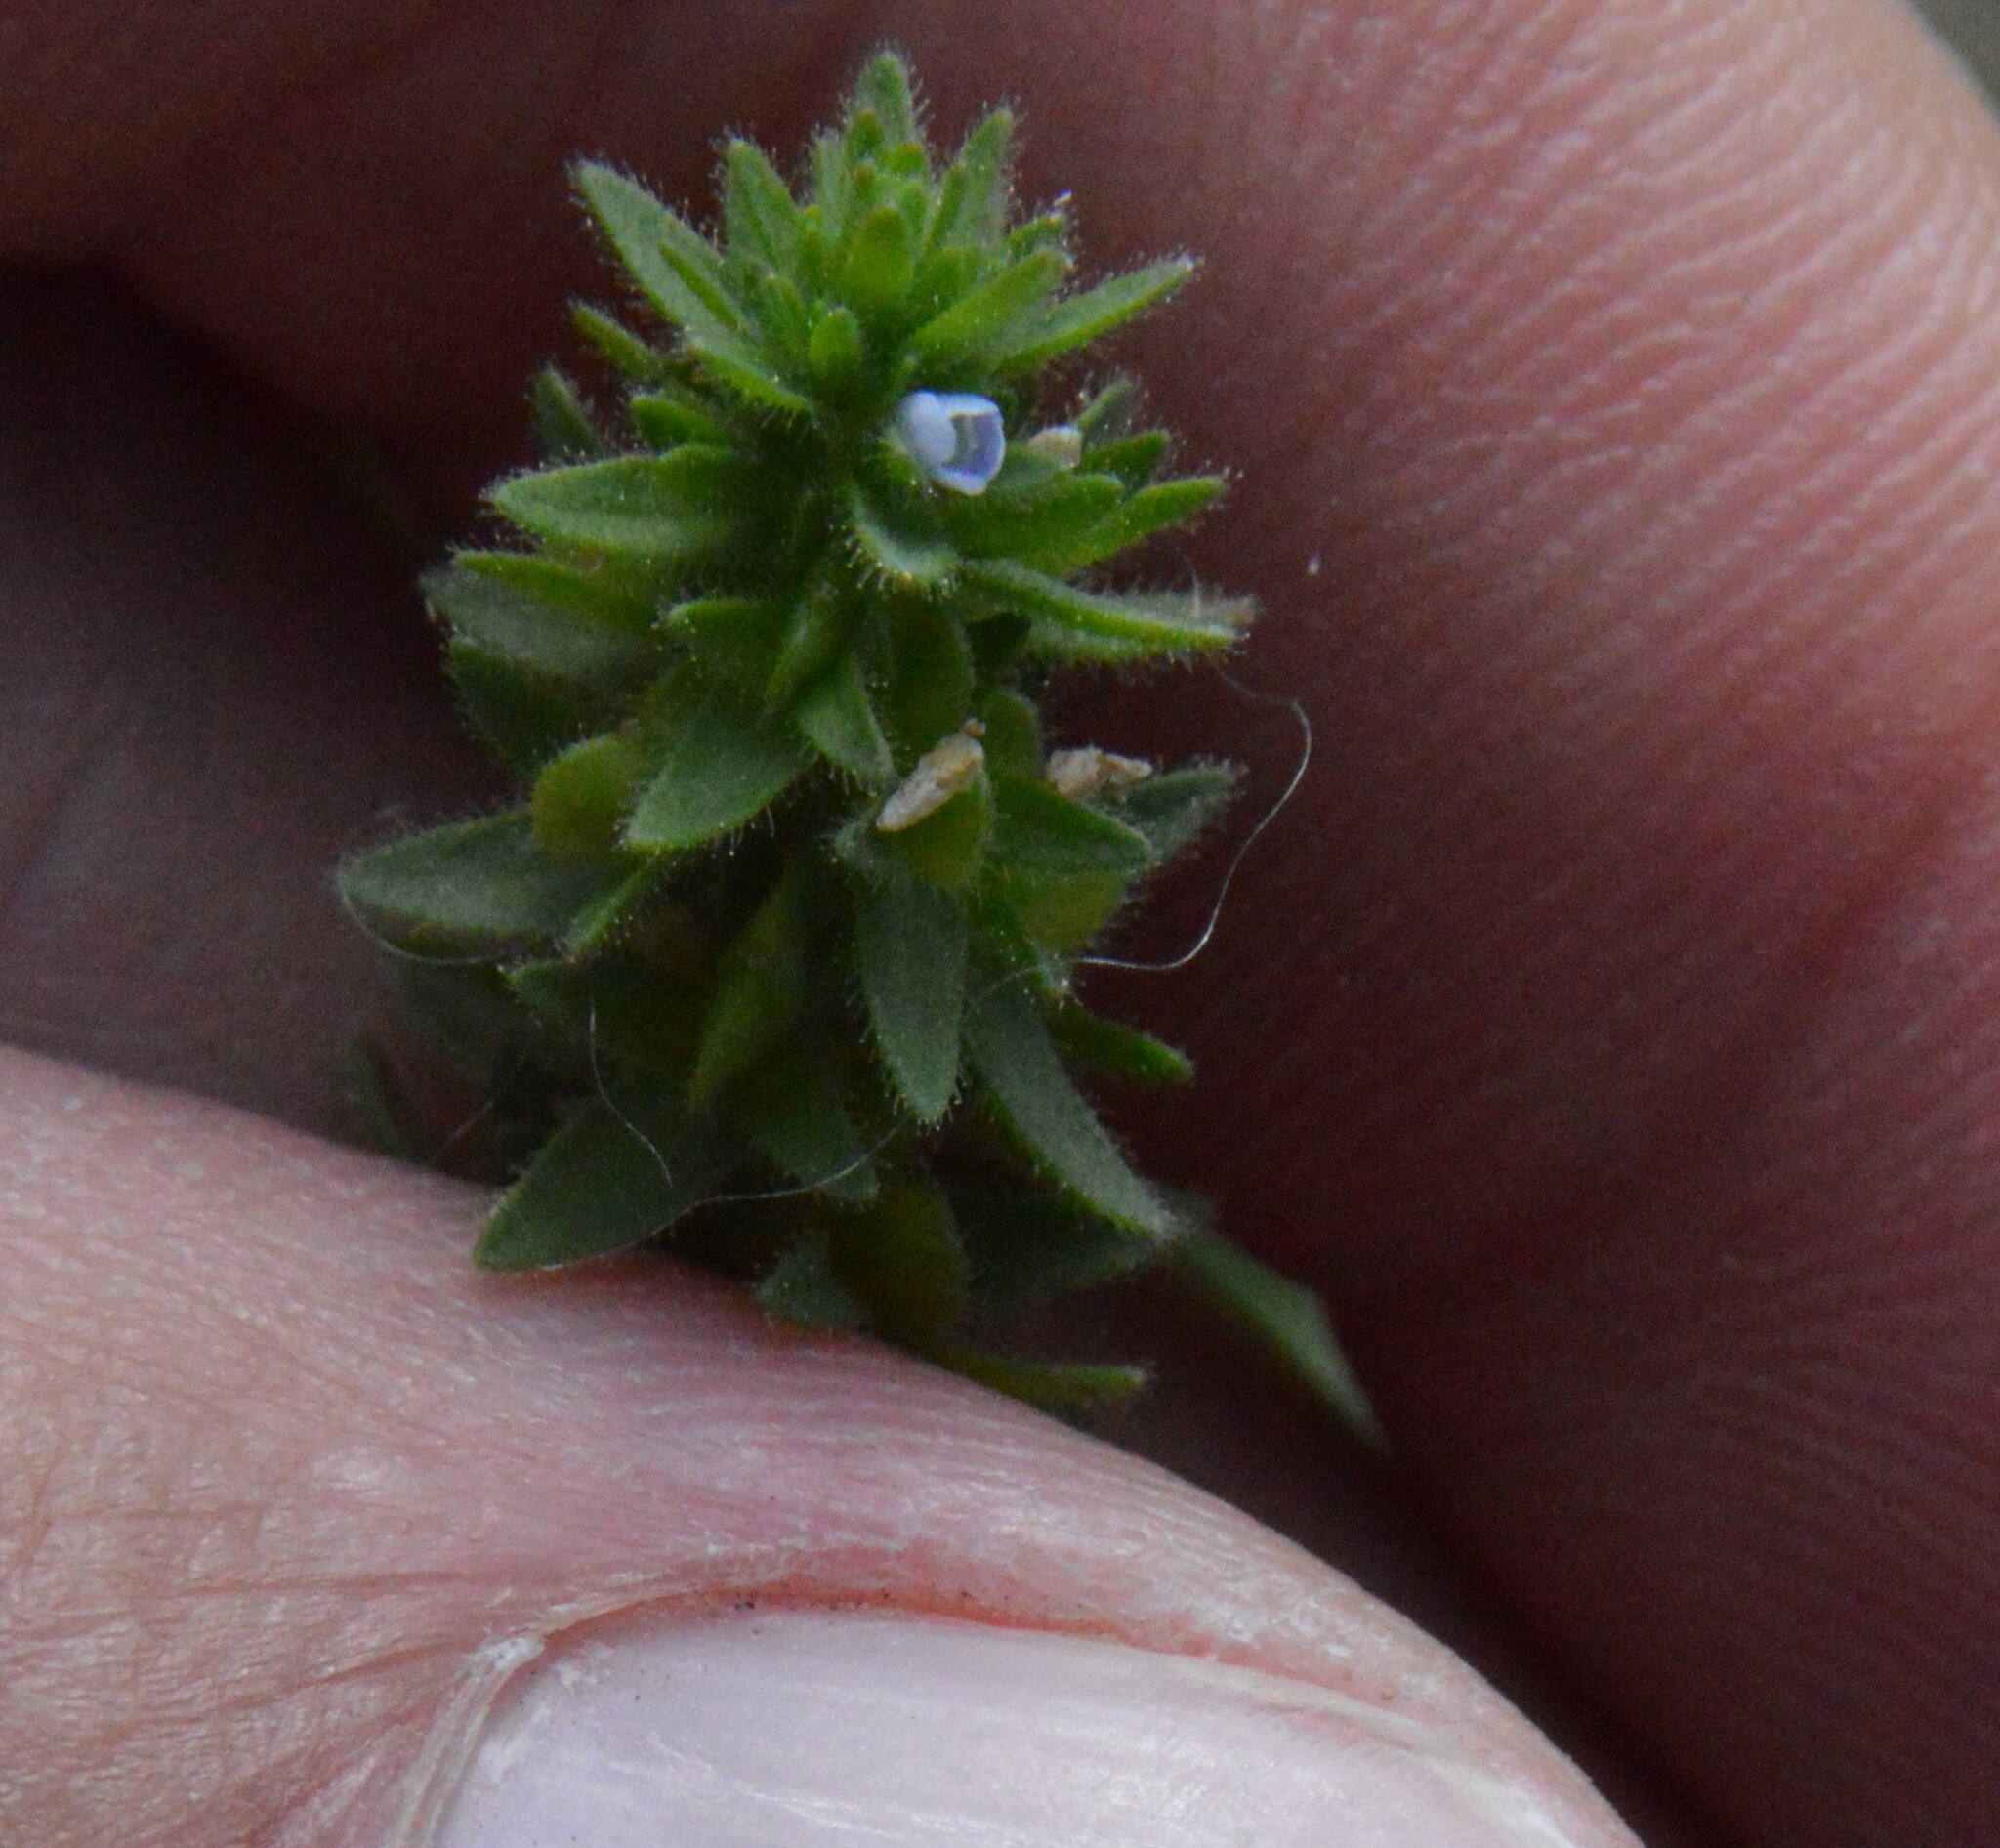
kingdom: Plantae
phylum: Tracheophyta
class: Magnoliopsida
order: Lamiales
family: Plantaginaceae
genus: Veronica
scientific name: Veronica arvensis
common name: Corn speedwell
